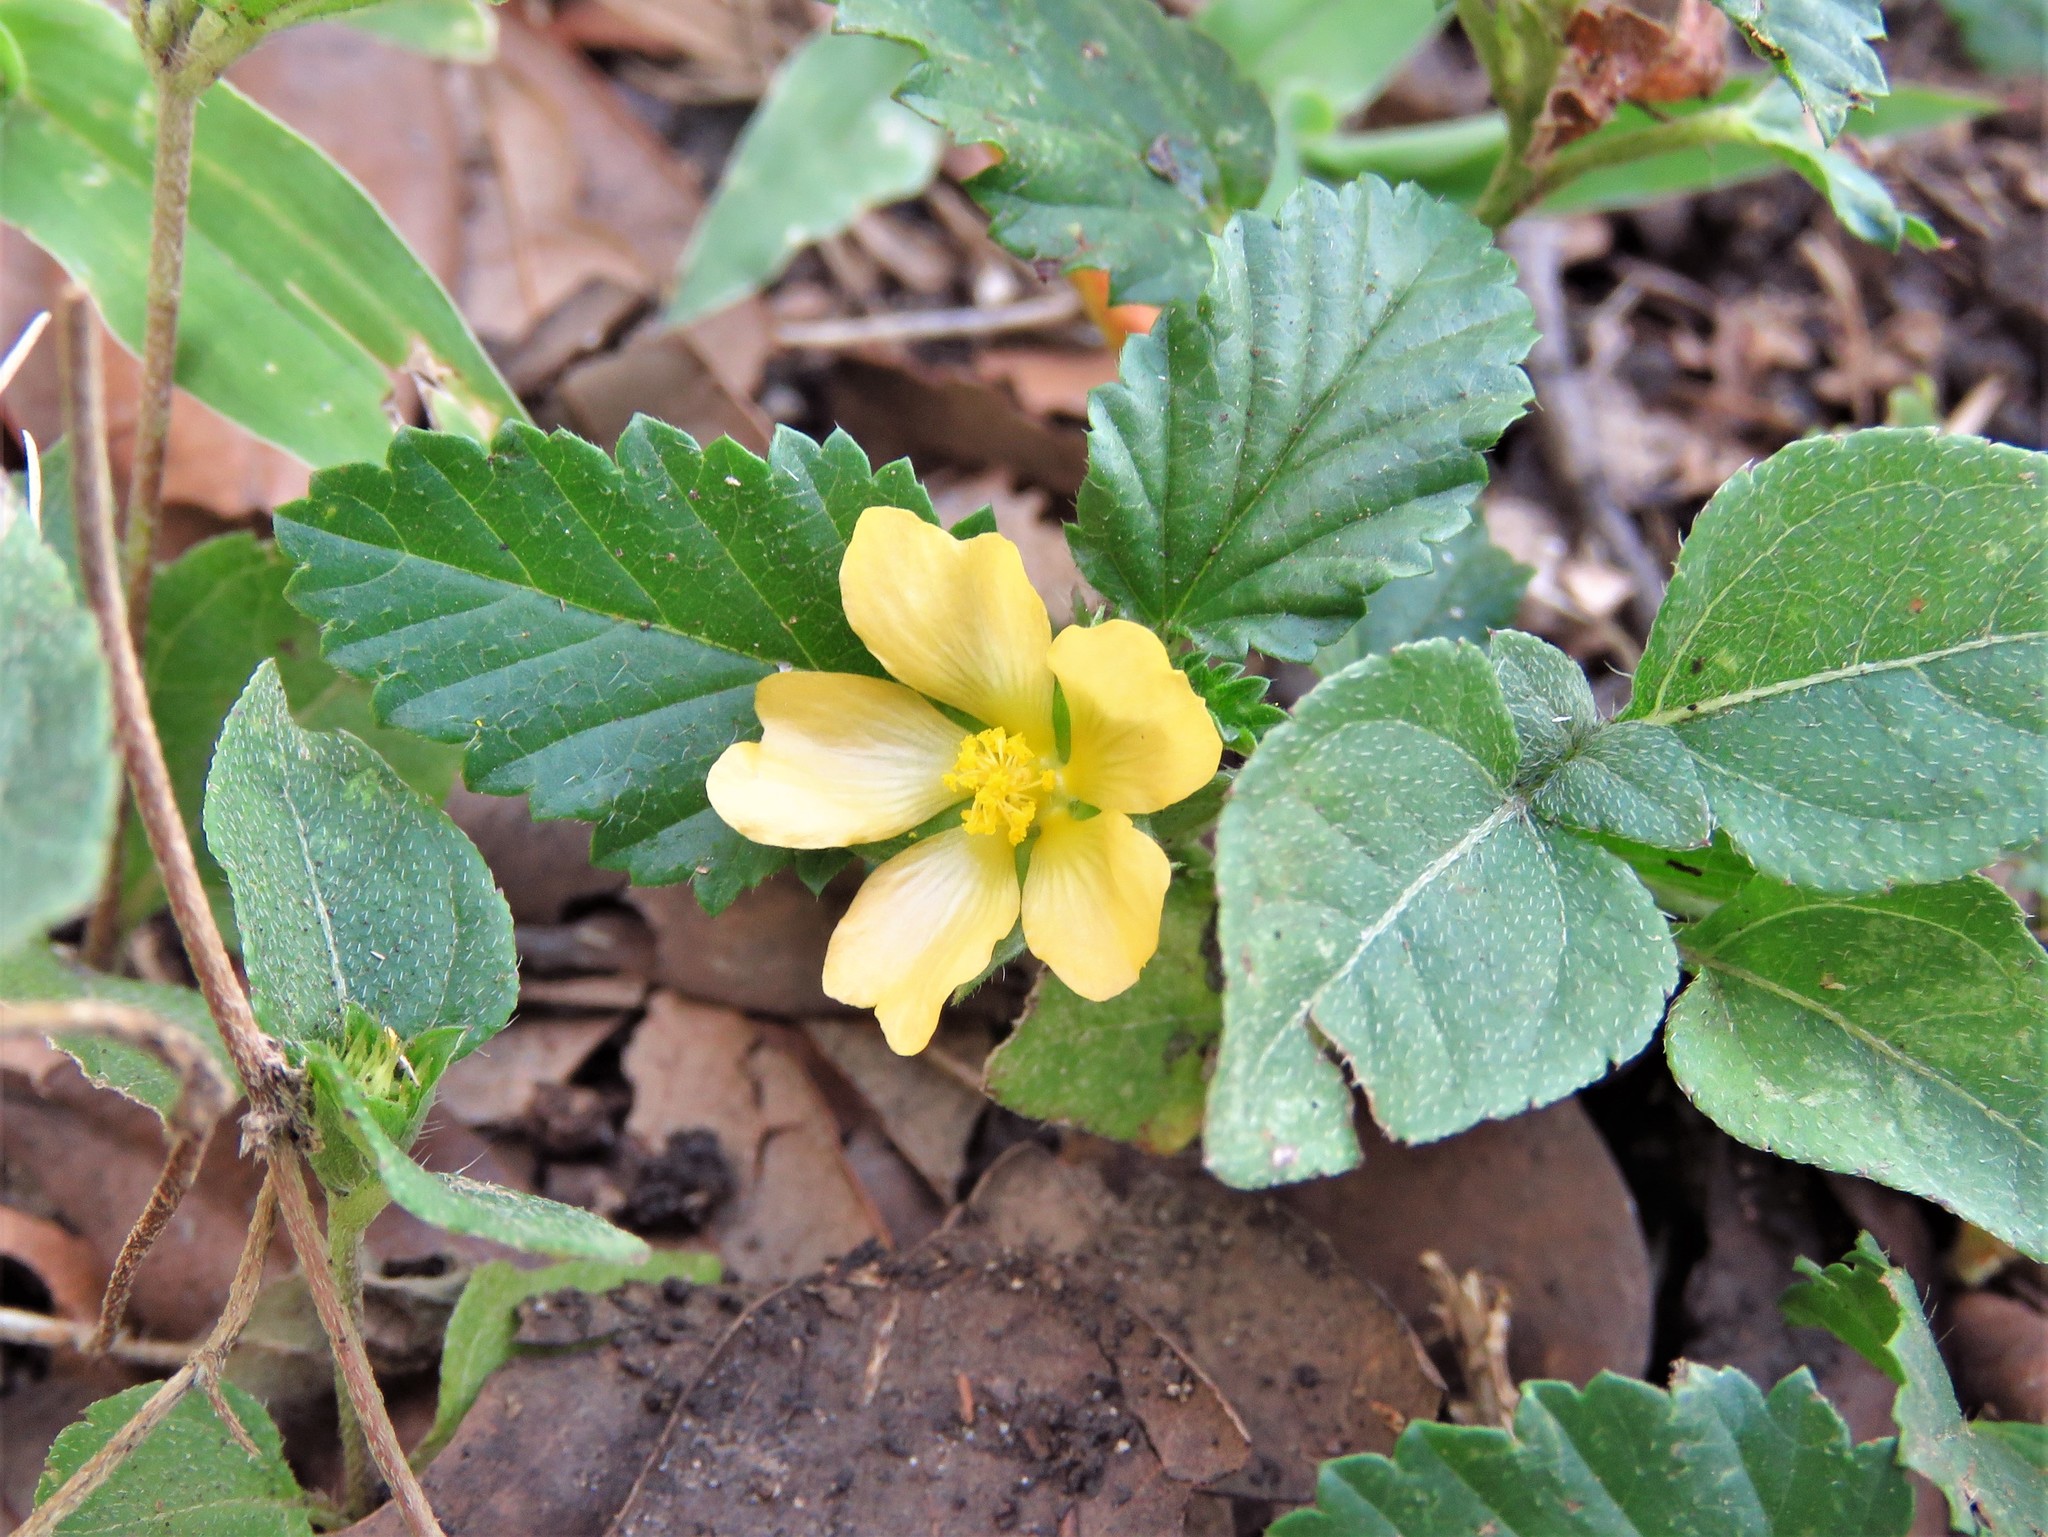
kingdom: Plantae
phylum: Tracheophyta
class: Magnoliopsida
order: Malvales
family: Malvaceae
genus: Malvastrum
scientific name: Malvastrum coromandelianum
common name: Threelobe false mallow
